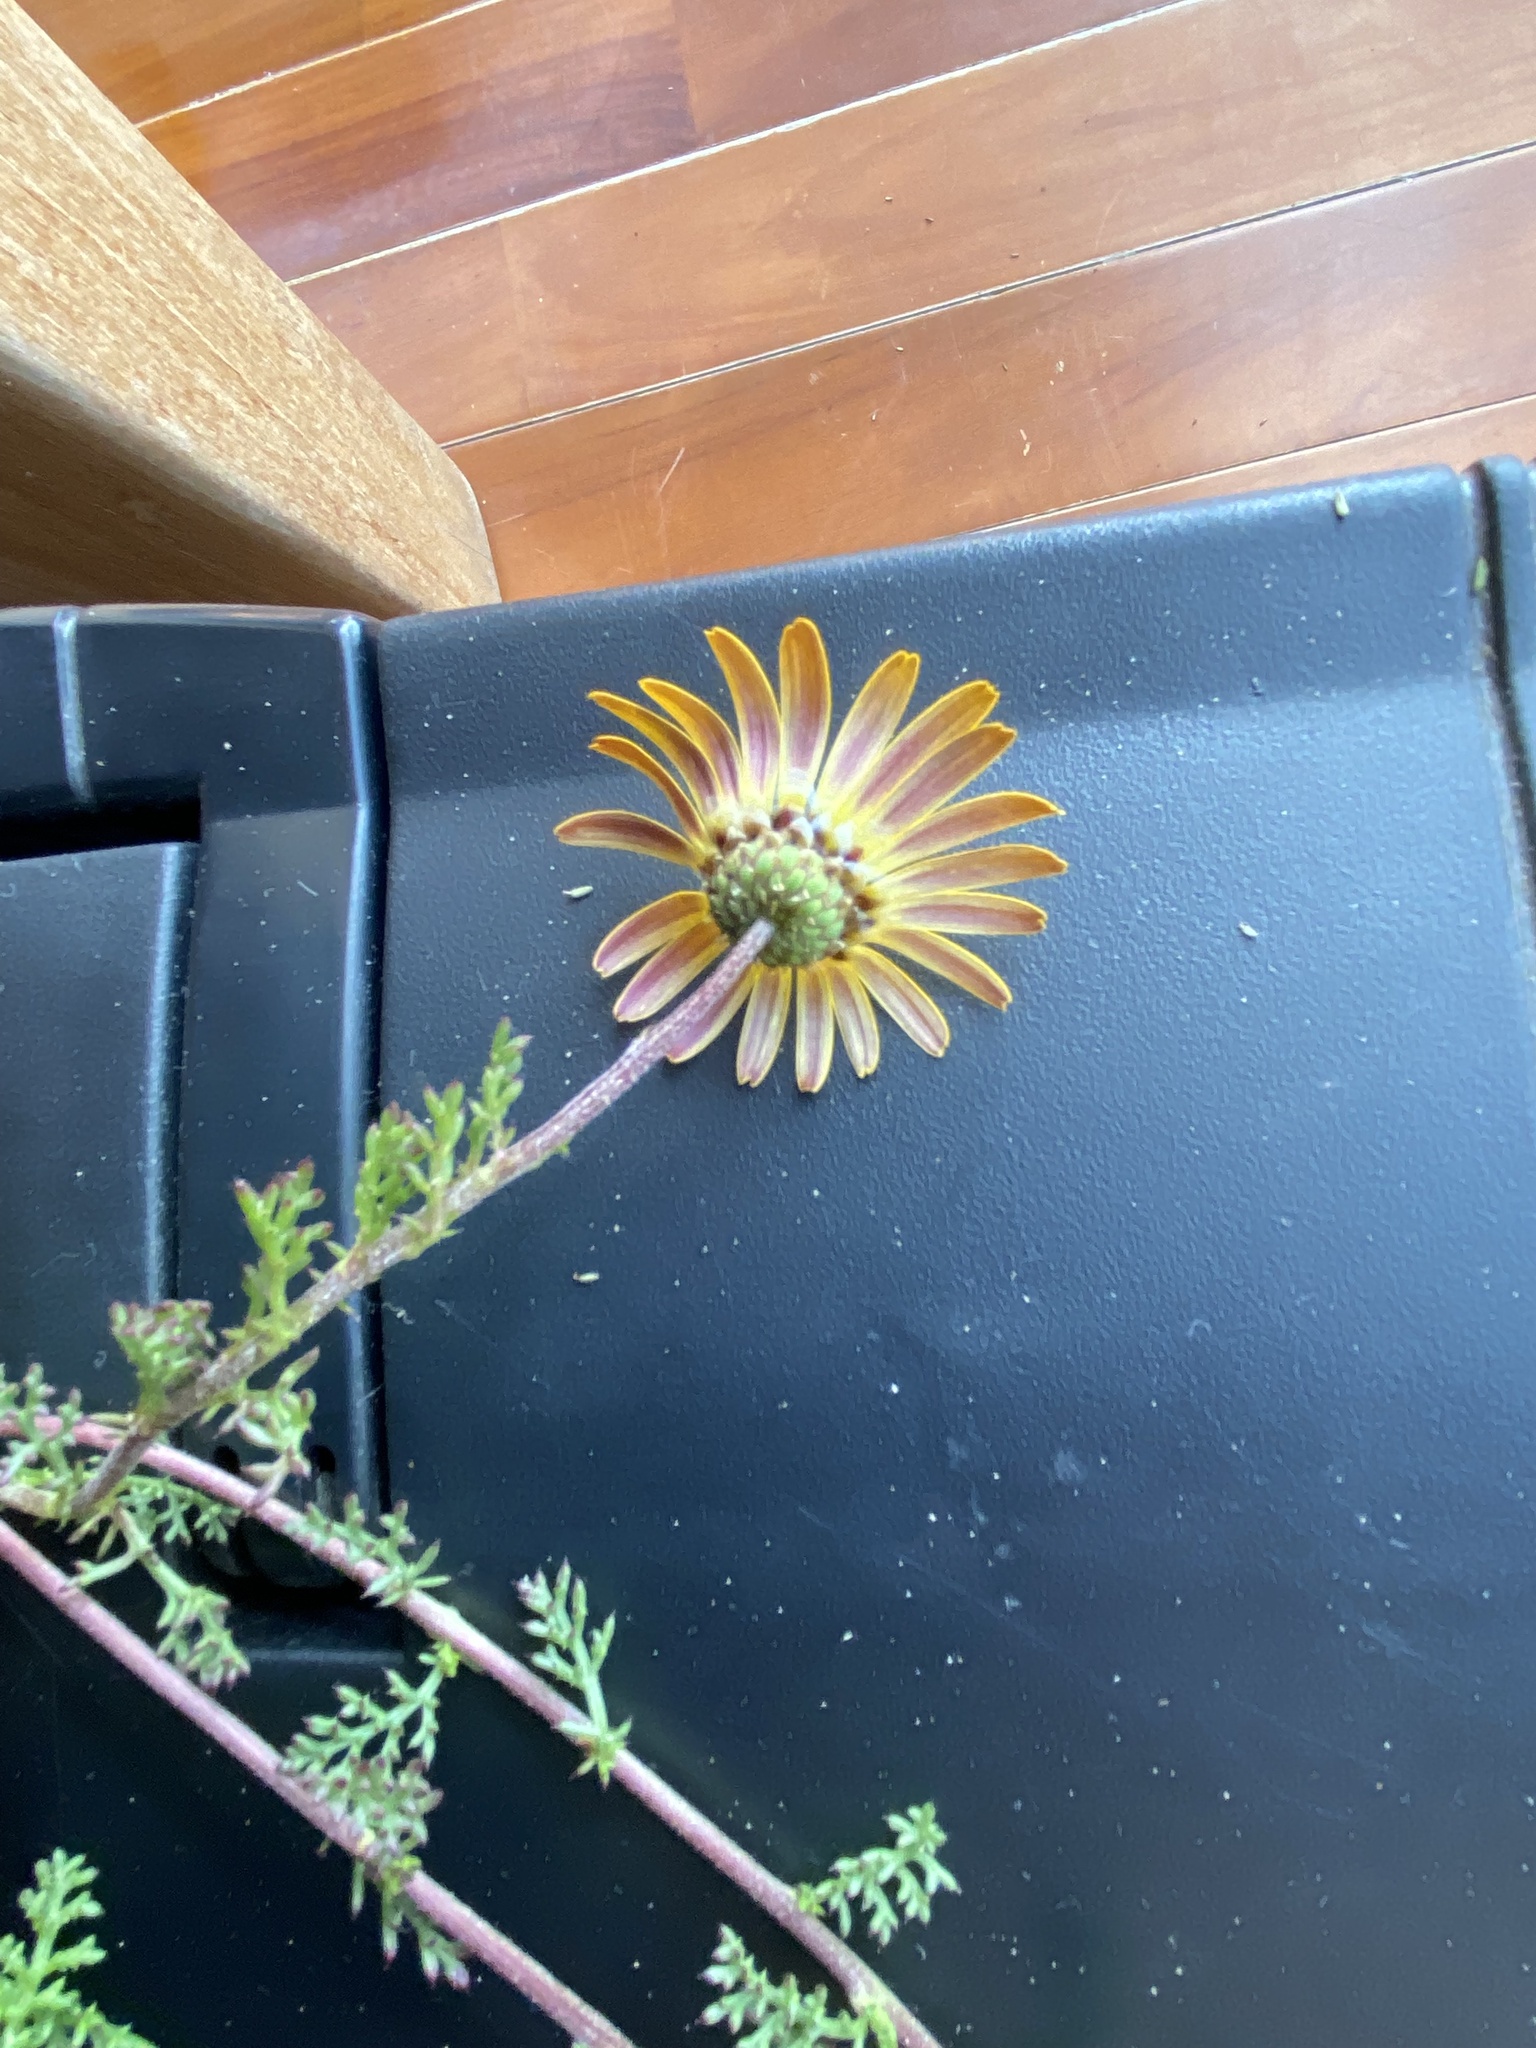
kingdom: Plantae
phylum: Tracheophyta
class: Magnoliopsida
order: Asterales
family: Asteraceae
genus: Ursinia
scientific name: Ursinia chrysanthemoides
